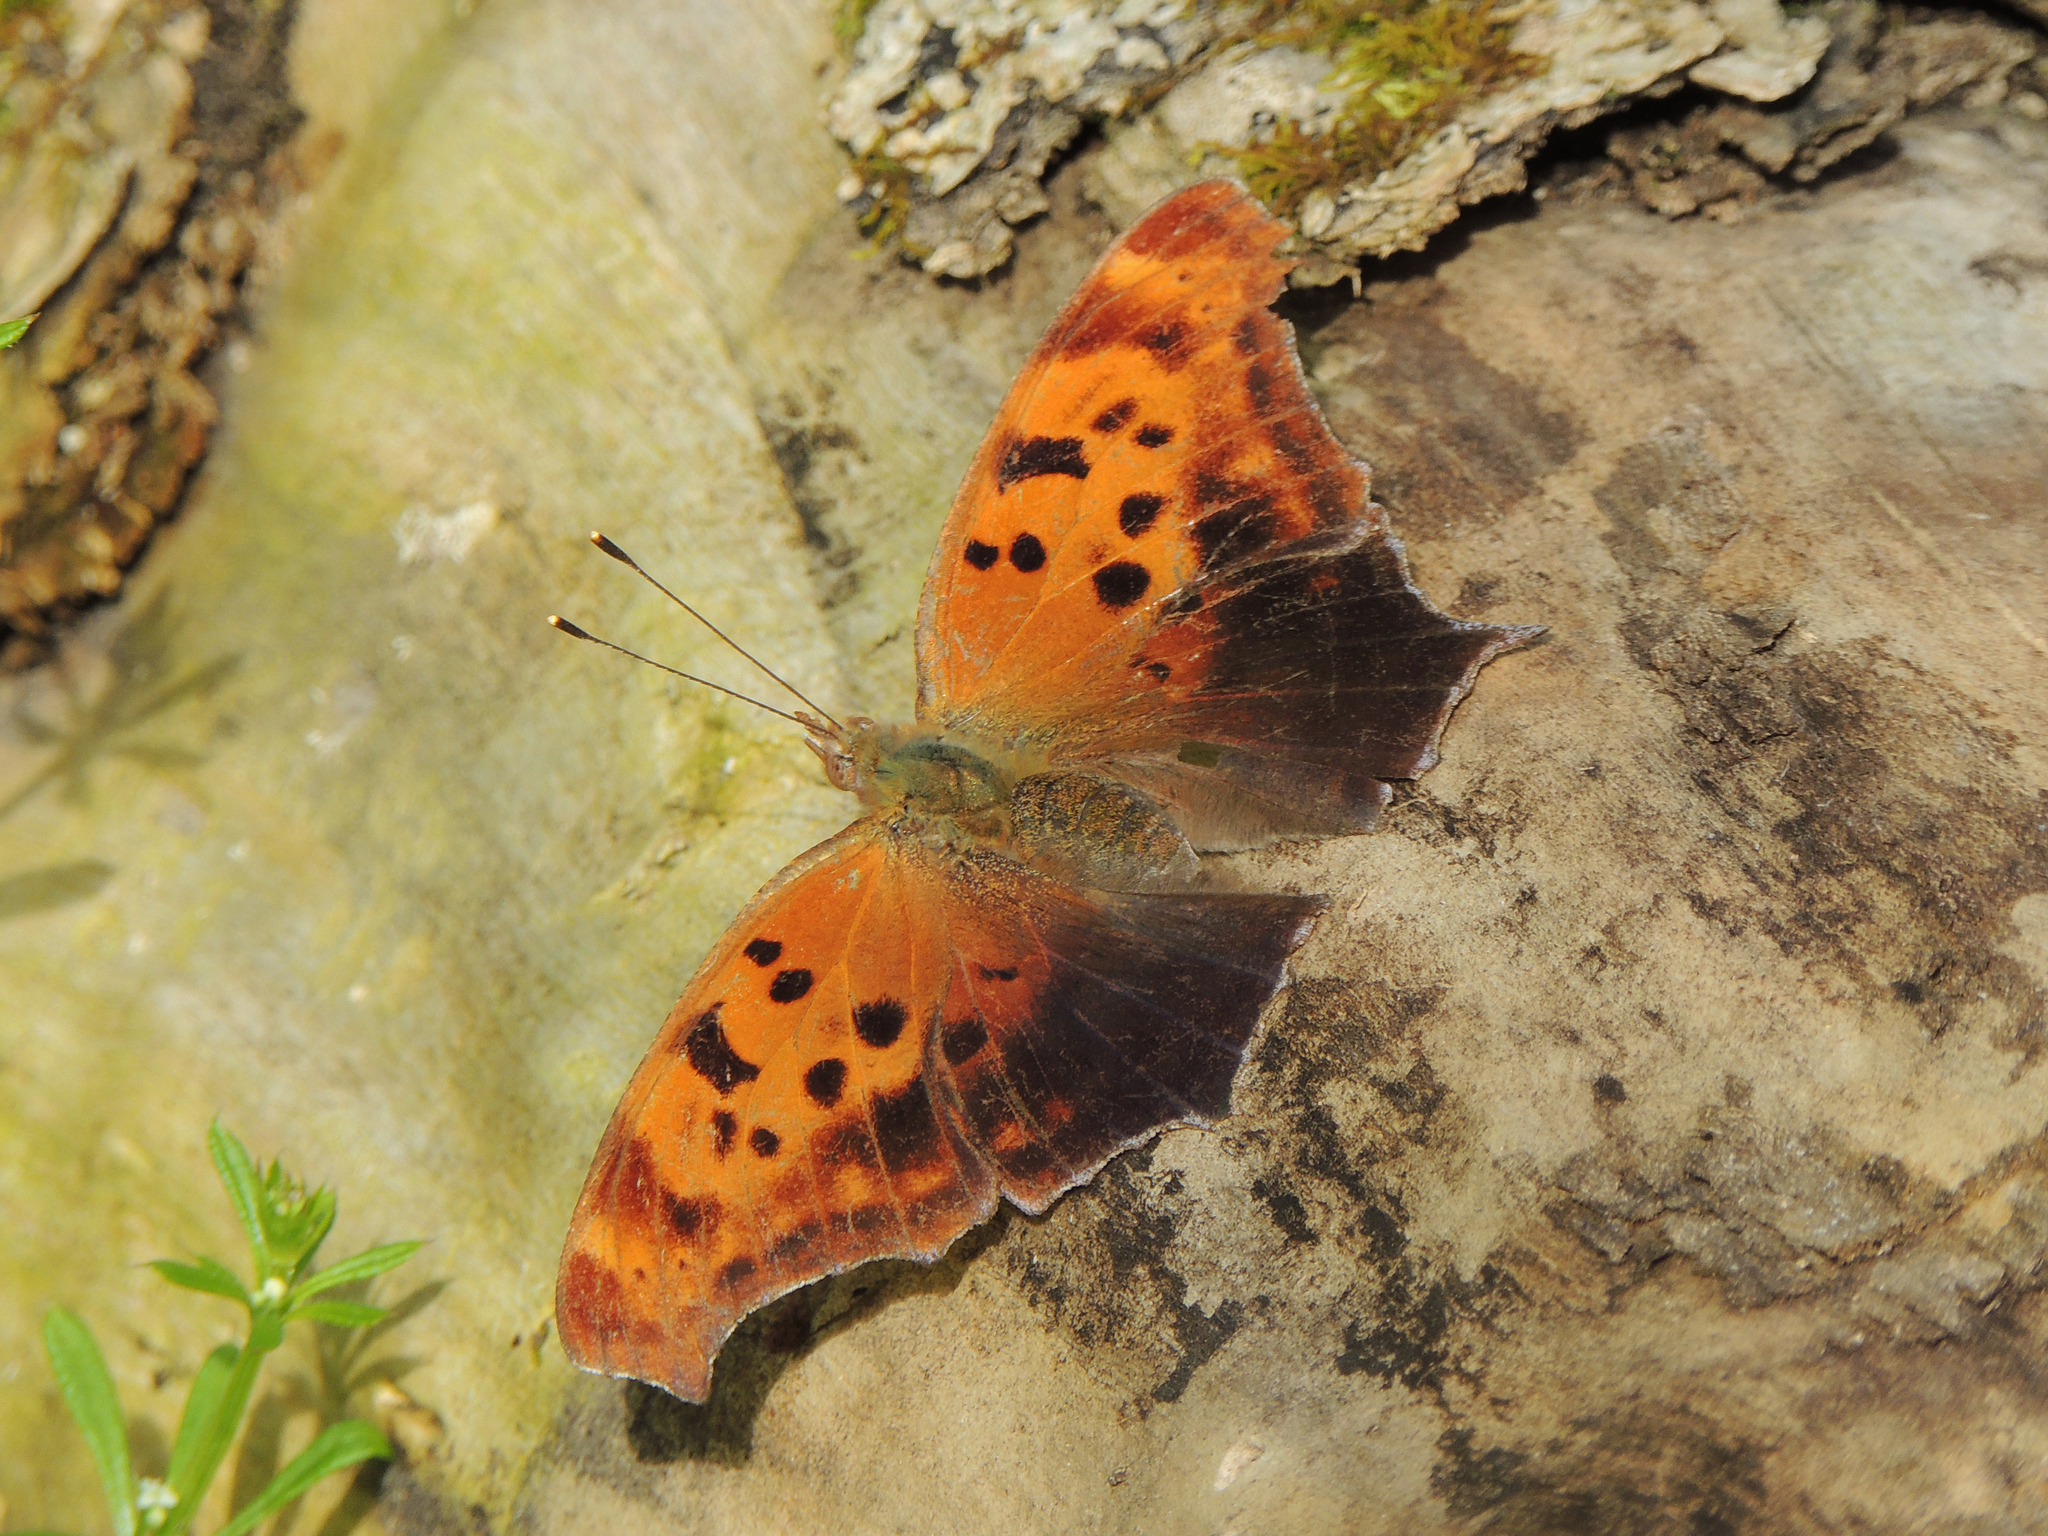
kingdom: Animalia
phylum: Arthropoda
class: Insecta
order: Lepidoptera
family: Nymphalidae
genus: Polygonia
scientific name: Polygonia interrogationis
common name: Question mark
